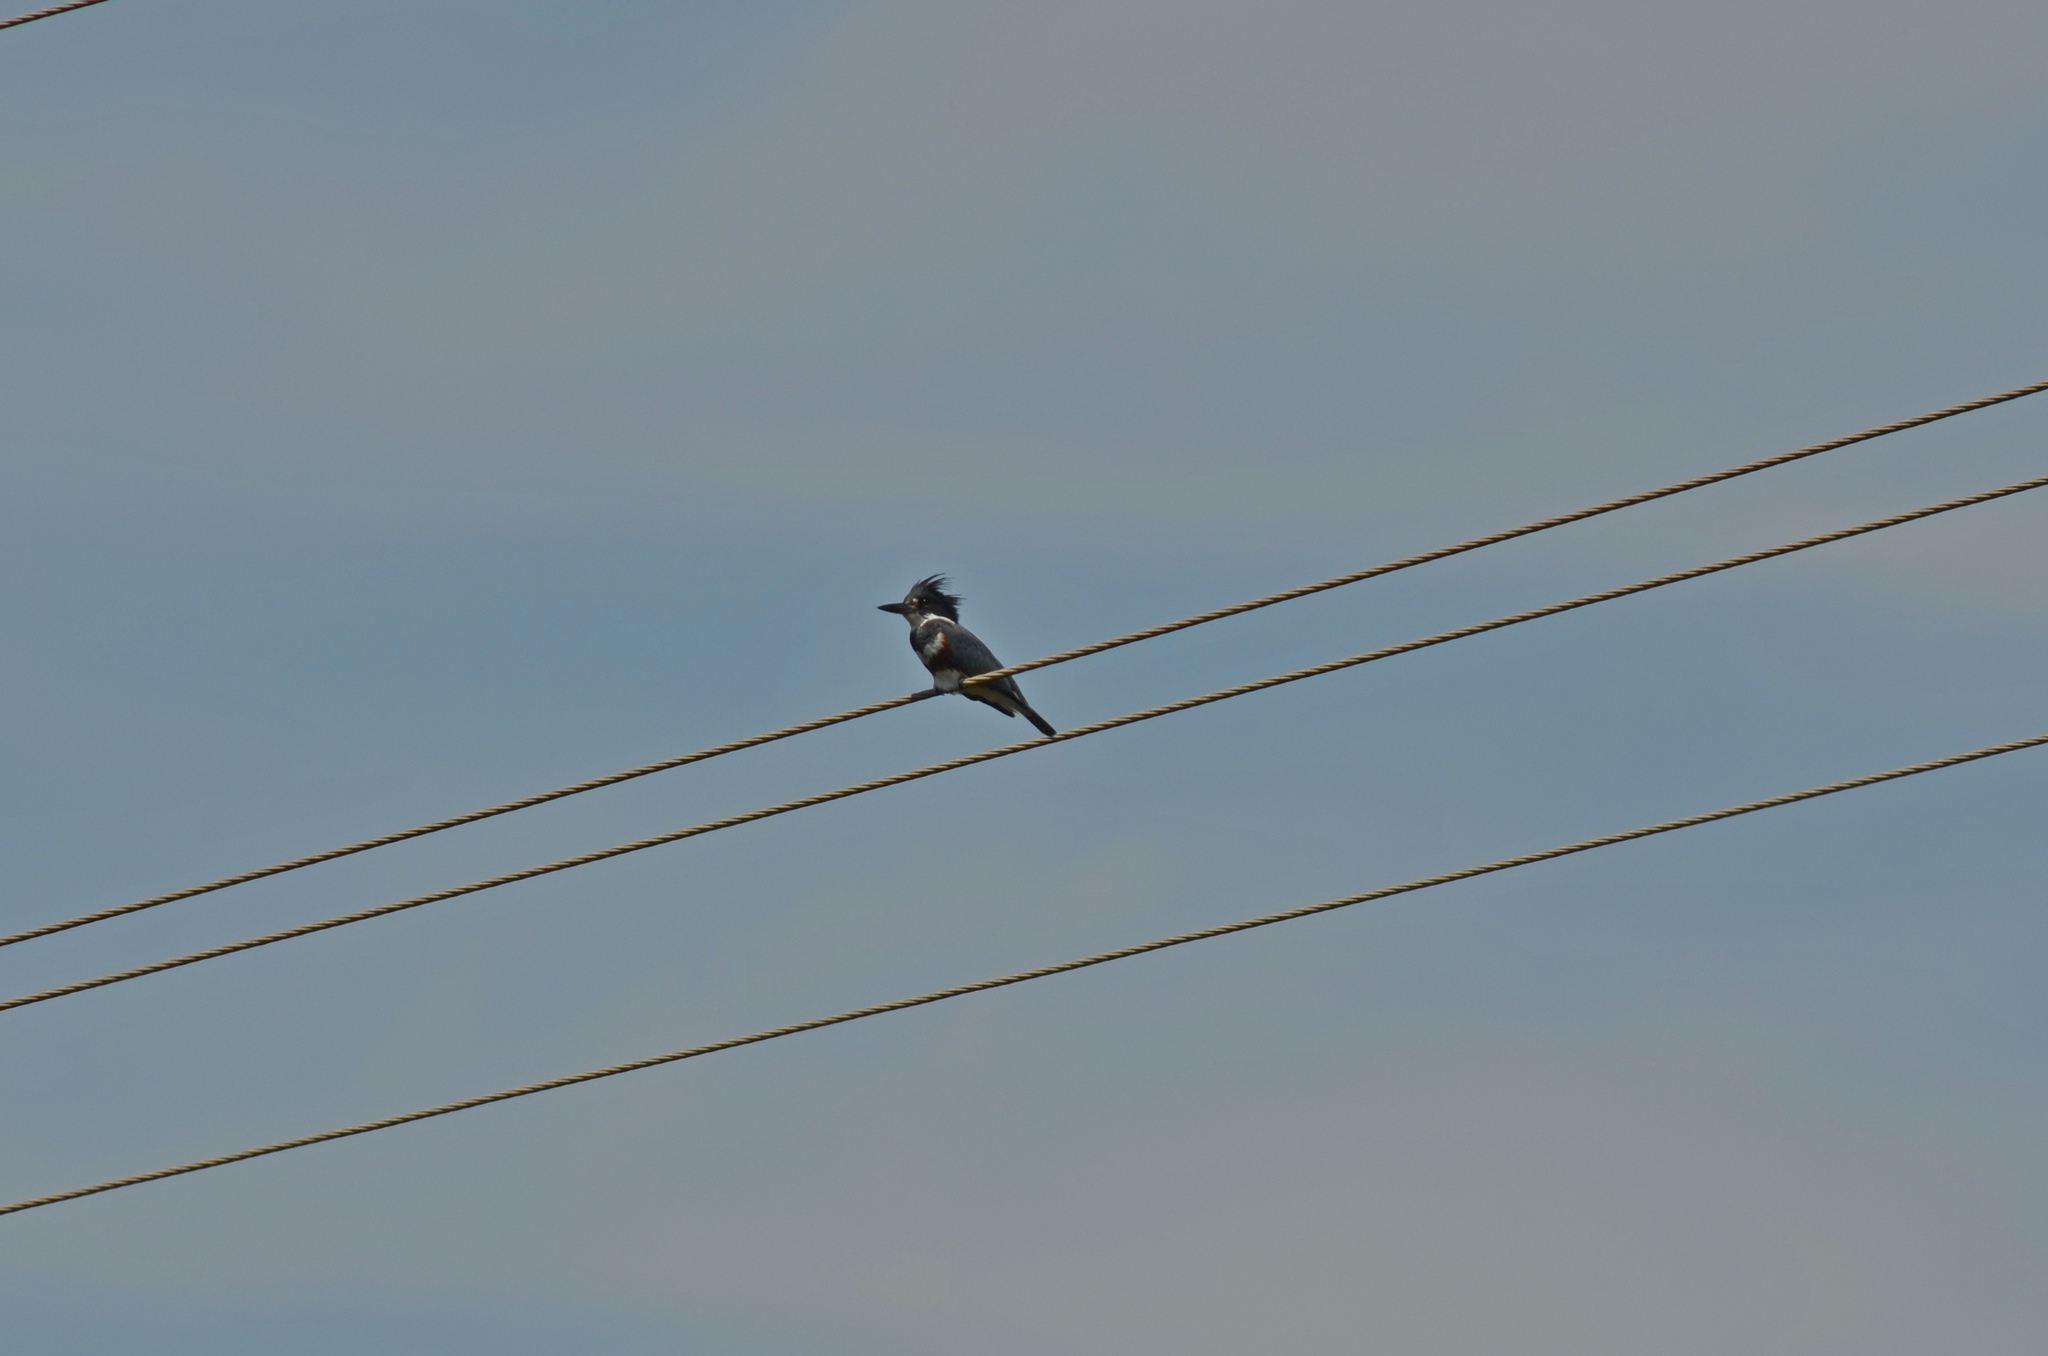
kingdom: Animalia
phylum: Chordata
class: Aves
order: Coraciiformes
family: Alcedinidae
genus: Megaceryle
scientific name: Megaceryle alcyon
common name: Belted kingfisher
